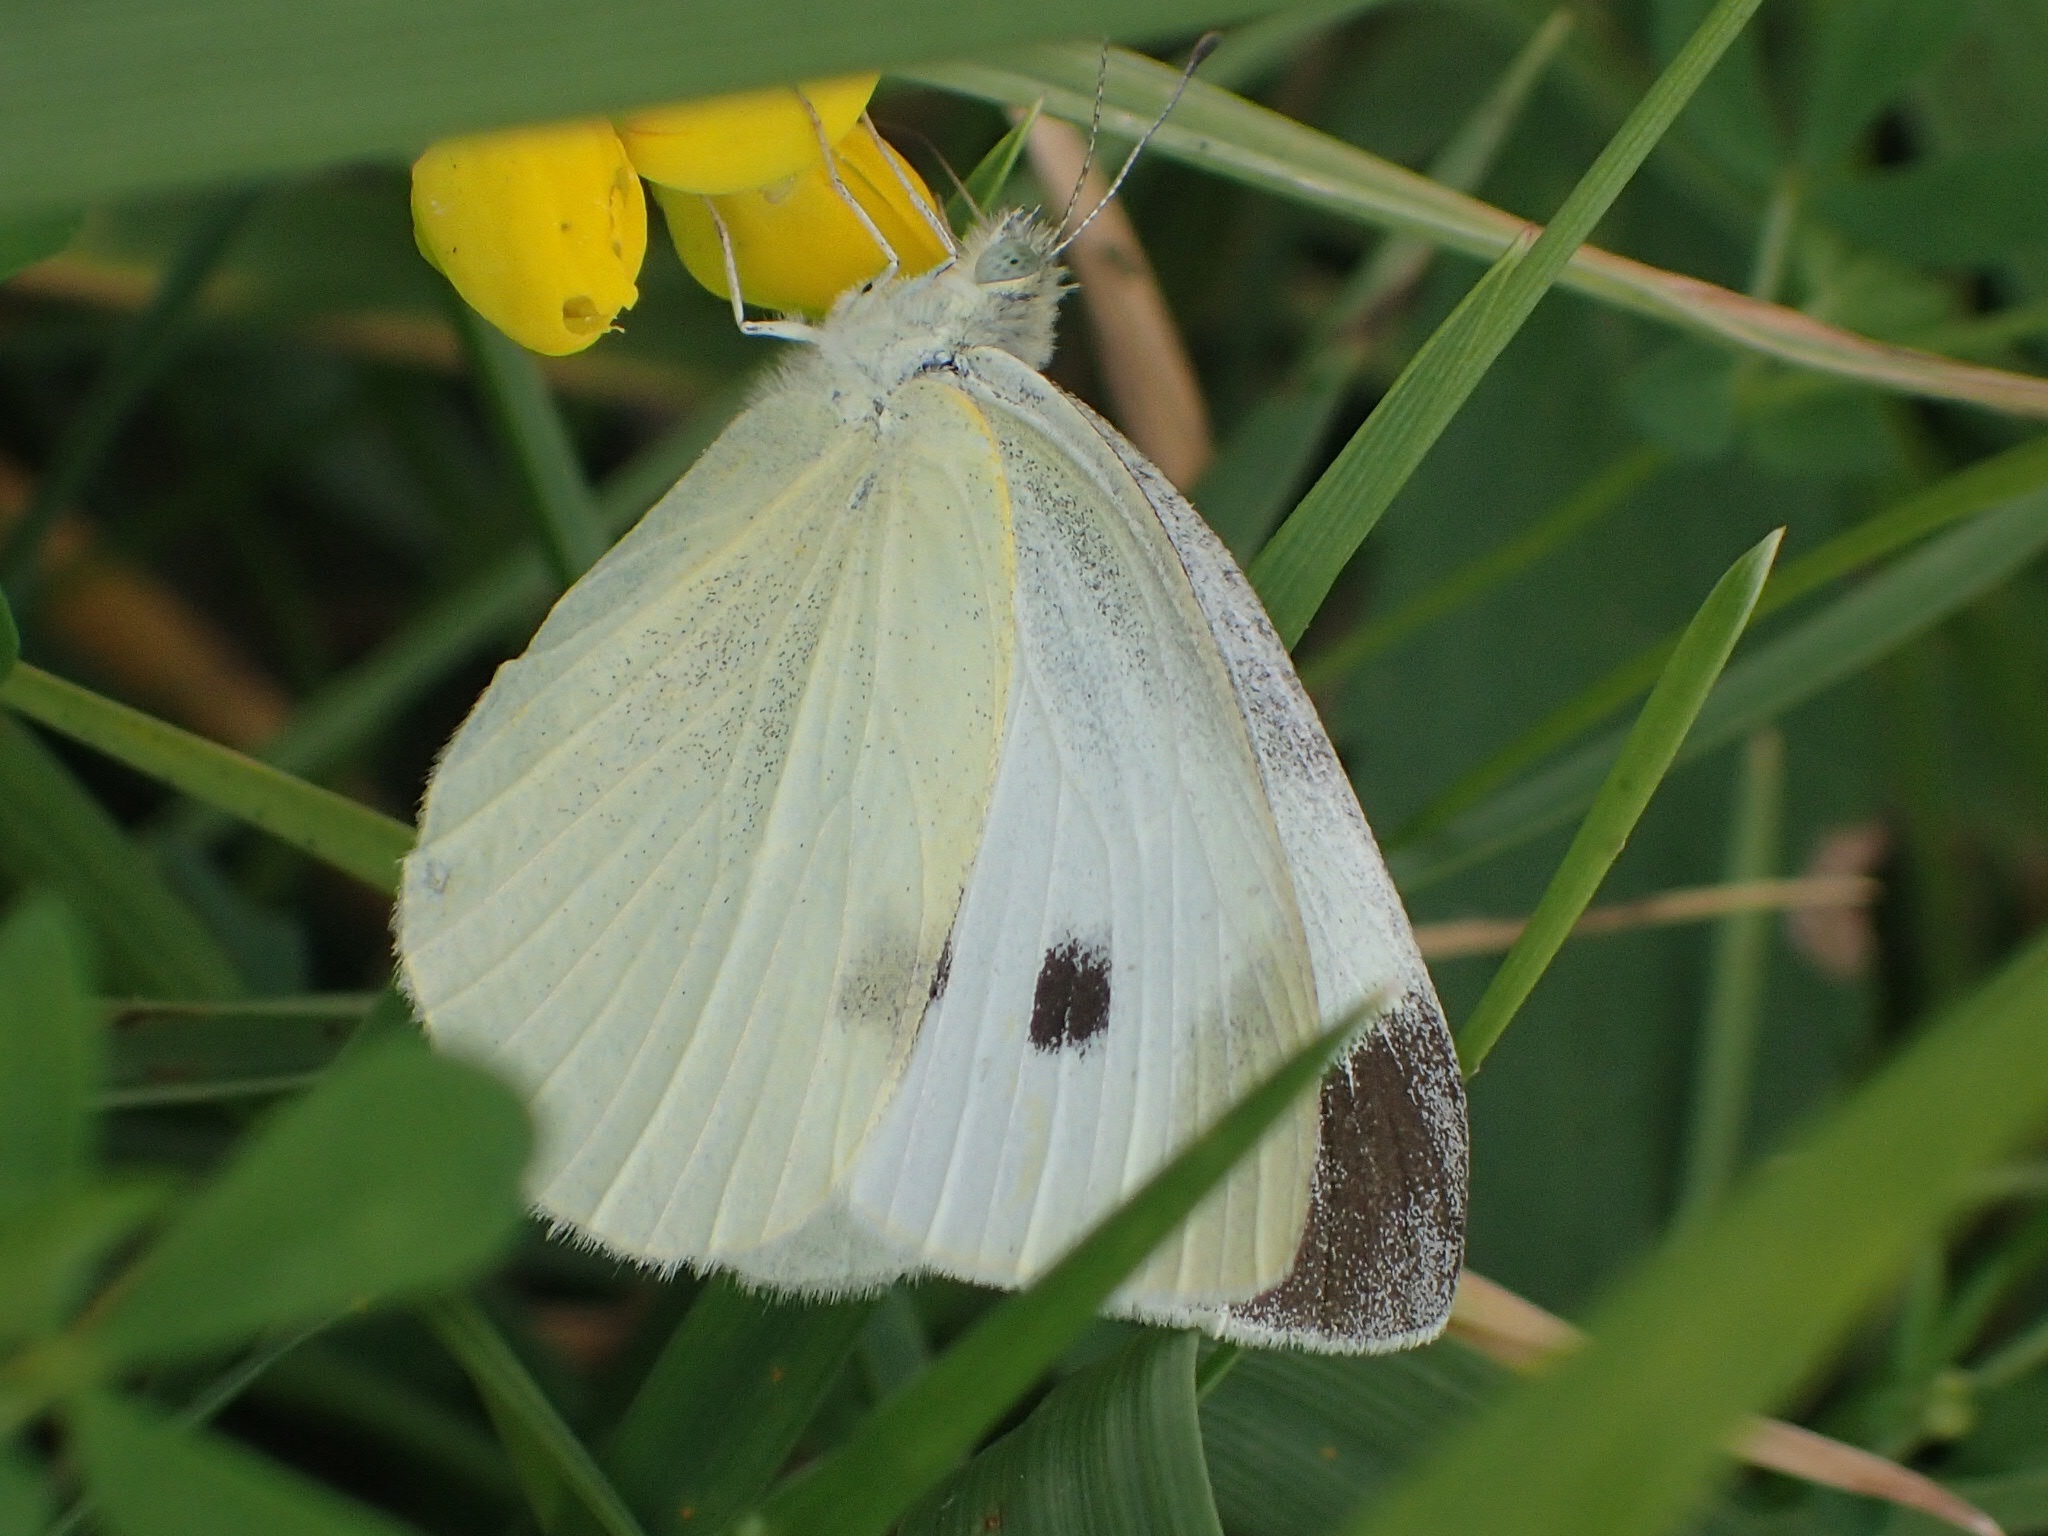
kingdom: Animalia
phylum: Arthropoda
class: Insecta
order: Lepidoptera
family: Pieridae
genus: Pieris
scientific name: Pieris rapae
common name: Small white
